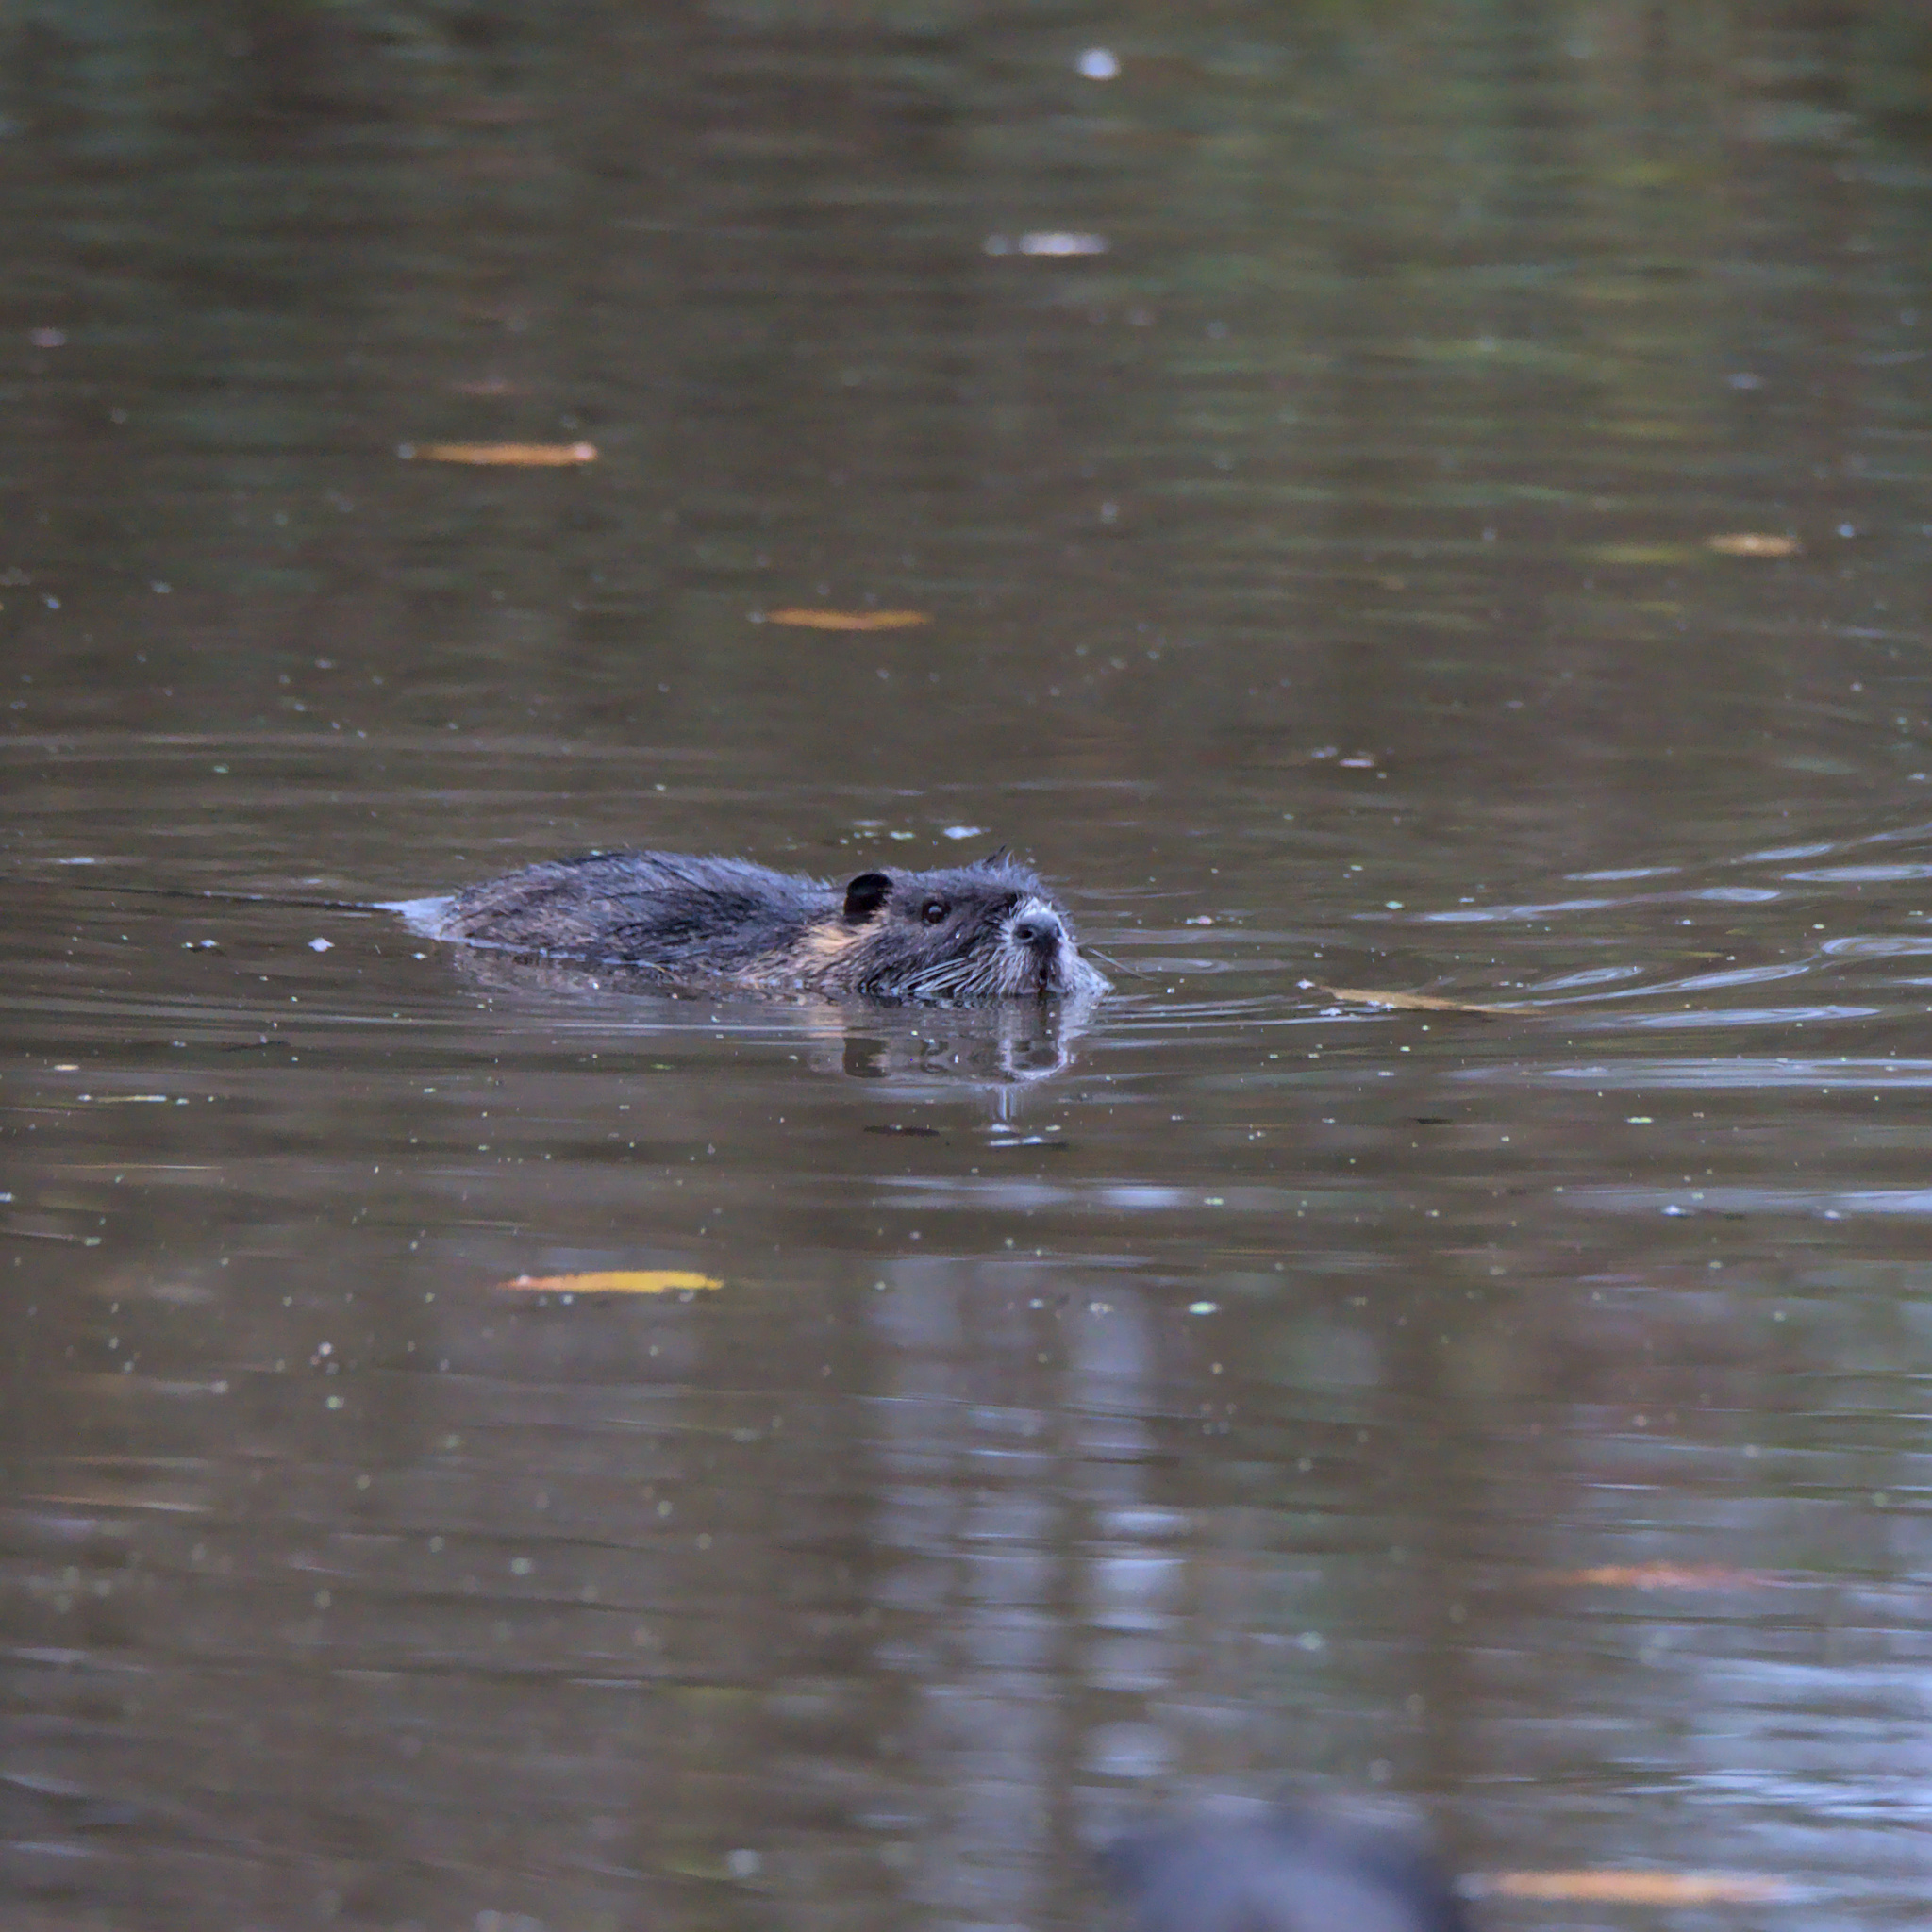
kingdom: Animalia
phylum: Chordata
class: Mammalia
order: Rodentia
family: Myocastoridae
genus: Myocastor
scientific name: Myocastor coypus
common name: Coypu
